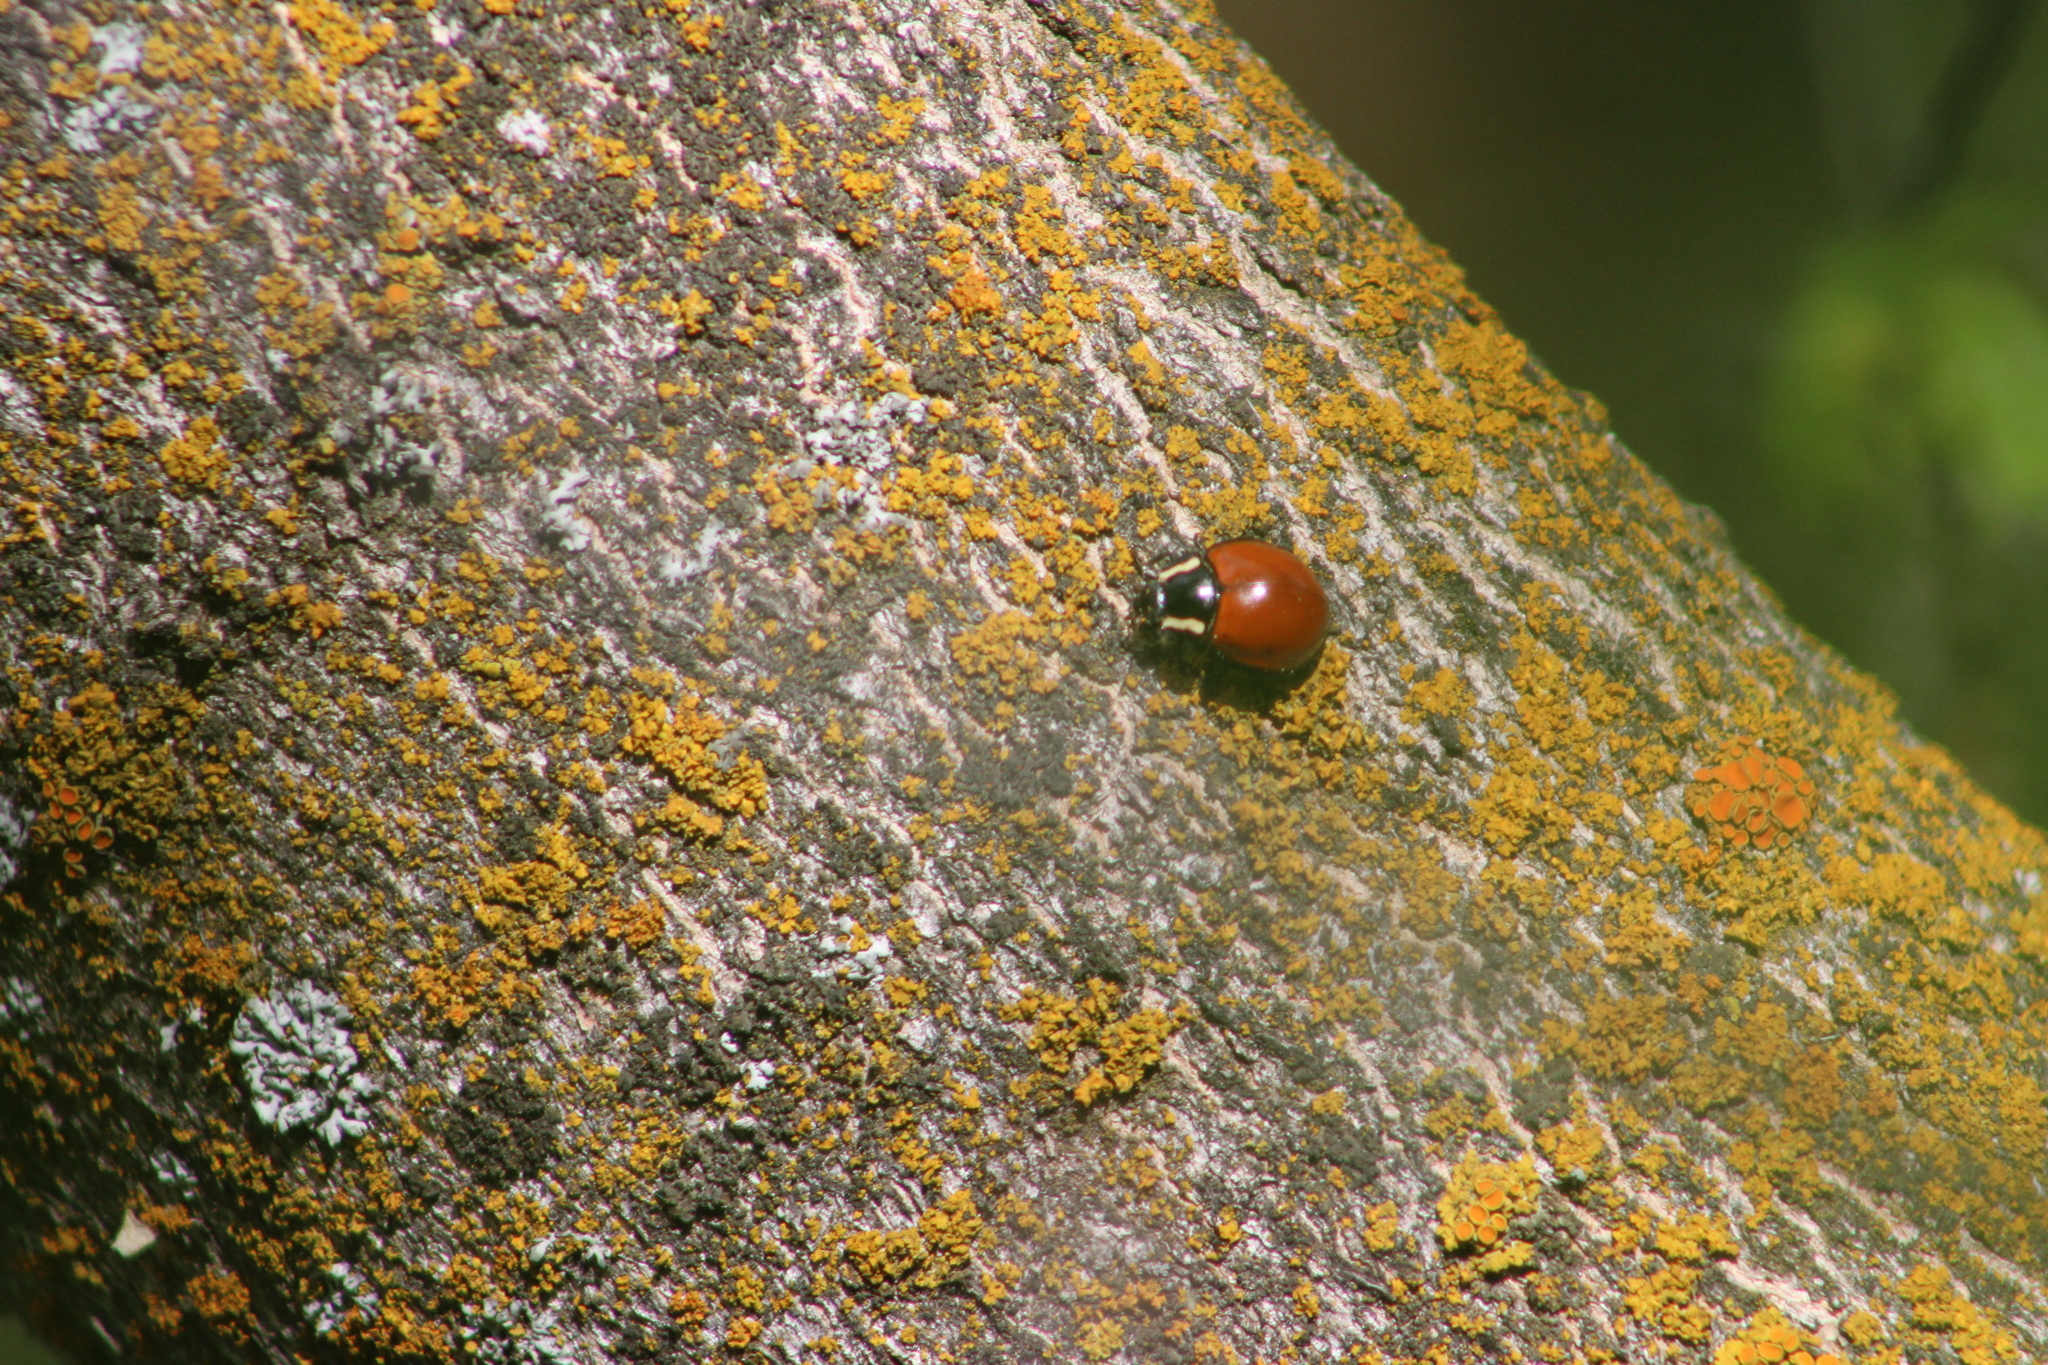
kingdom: Animalia
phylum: Arthropoda
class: Insecta
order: Coleoptera
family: Coccinellidae
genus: Anatis
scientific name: Anatis lecontei
